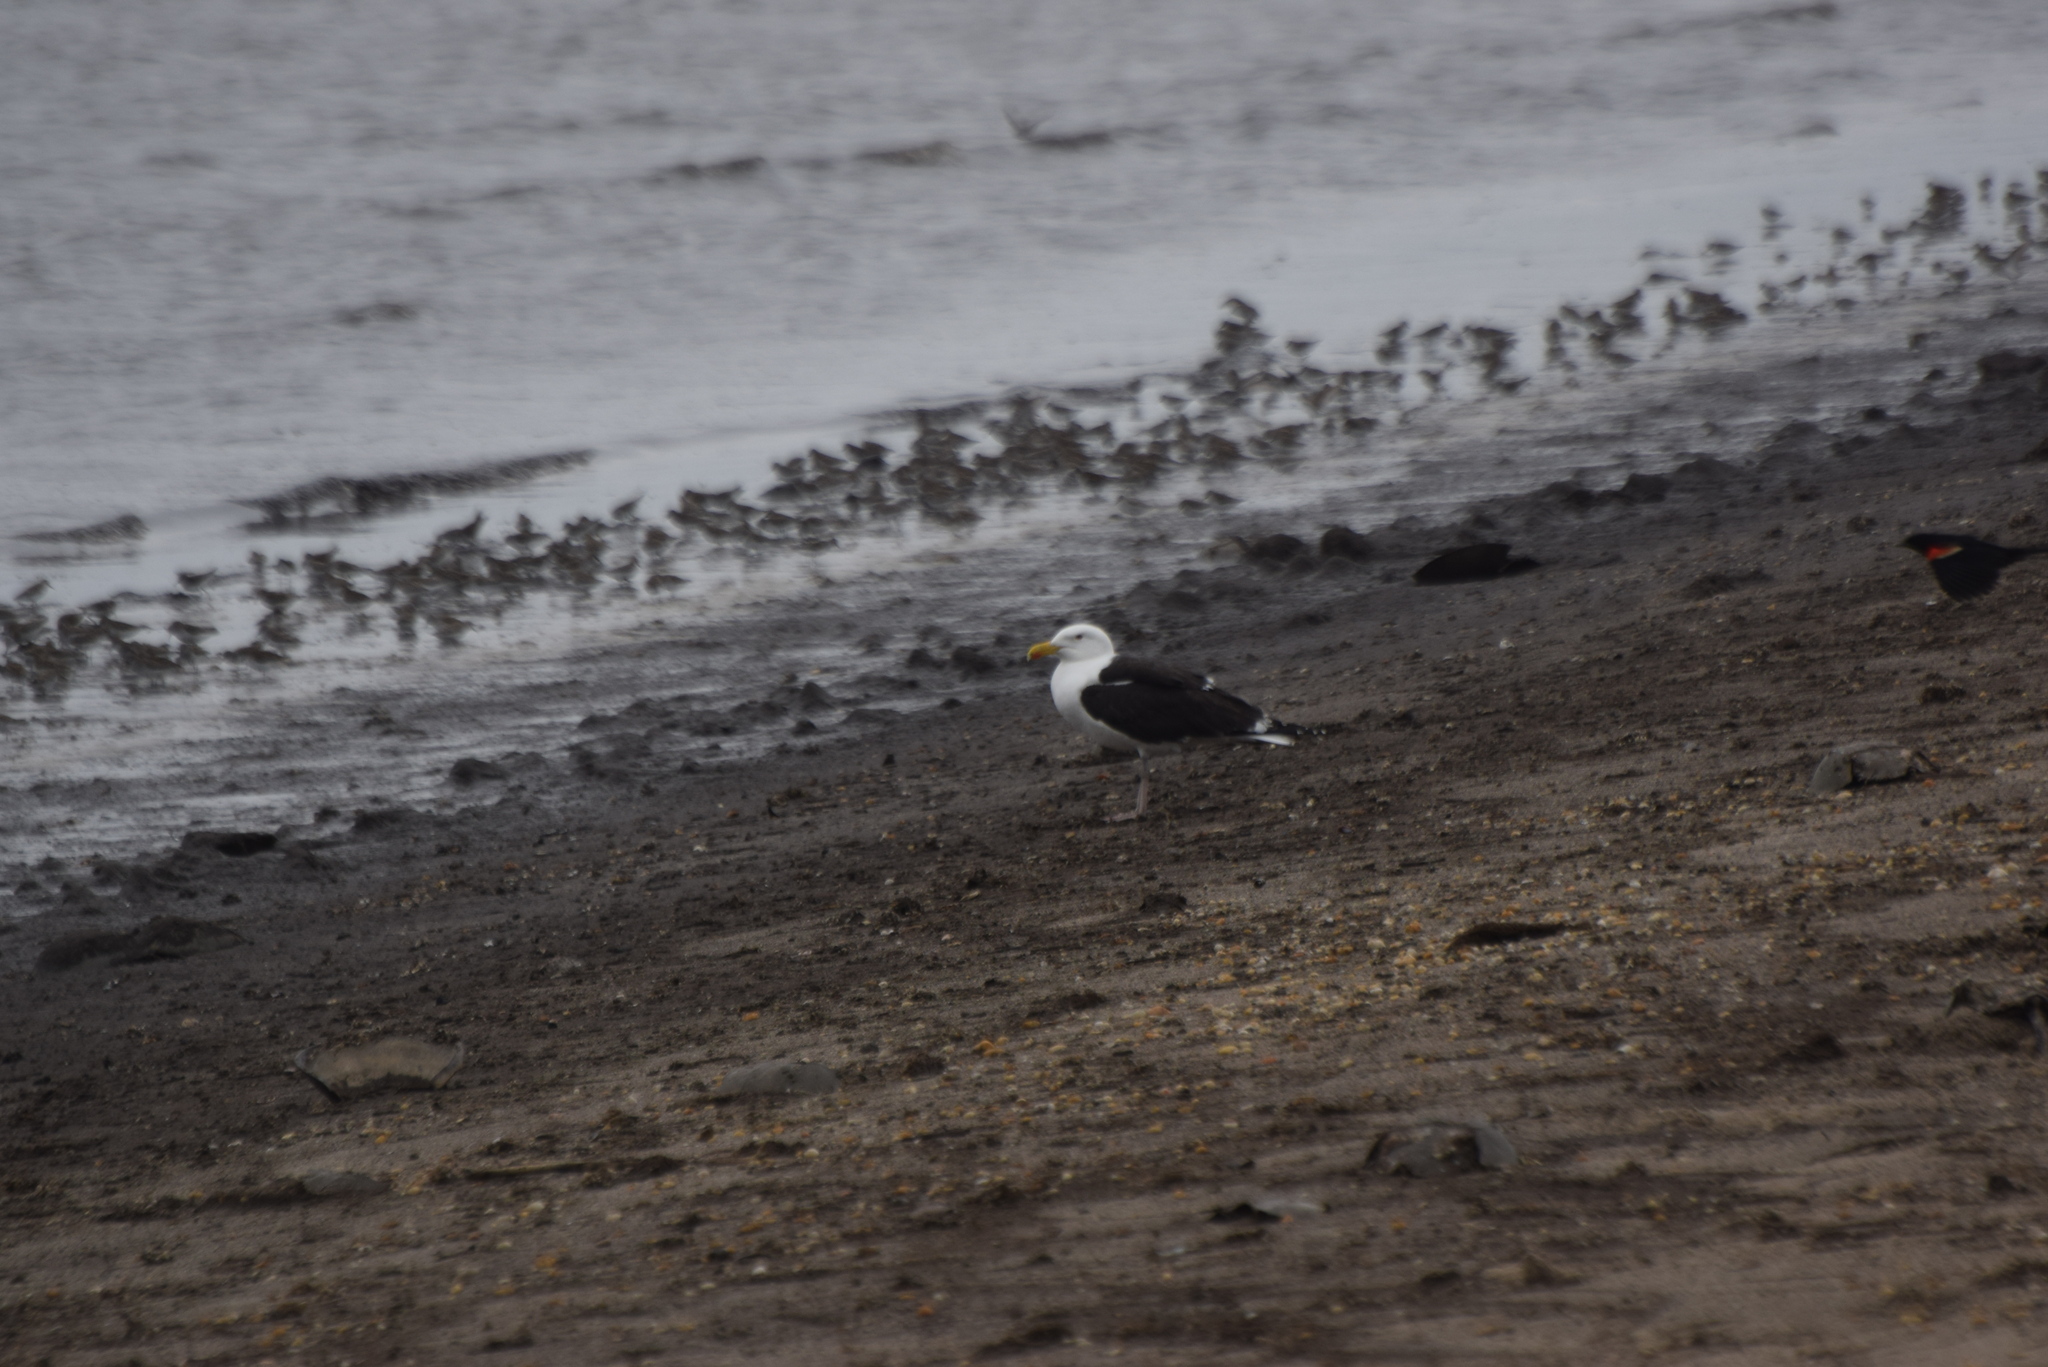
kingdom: Animalia
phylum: Chordata
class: Aves
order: Charadriiformes
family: Laridae
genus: Larus
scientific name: Larus marinus
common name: Great black-backed gull
